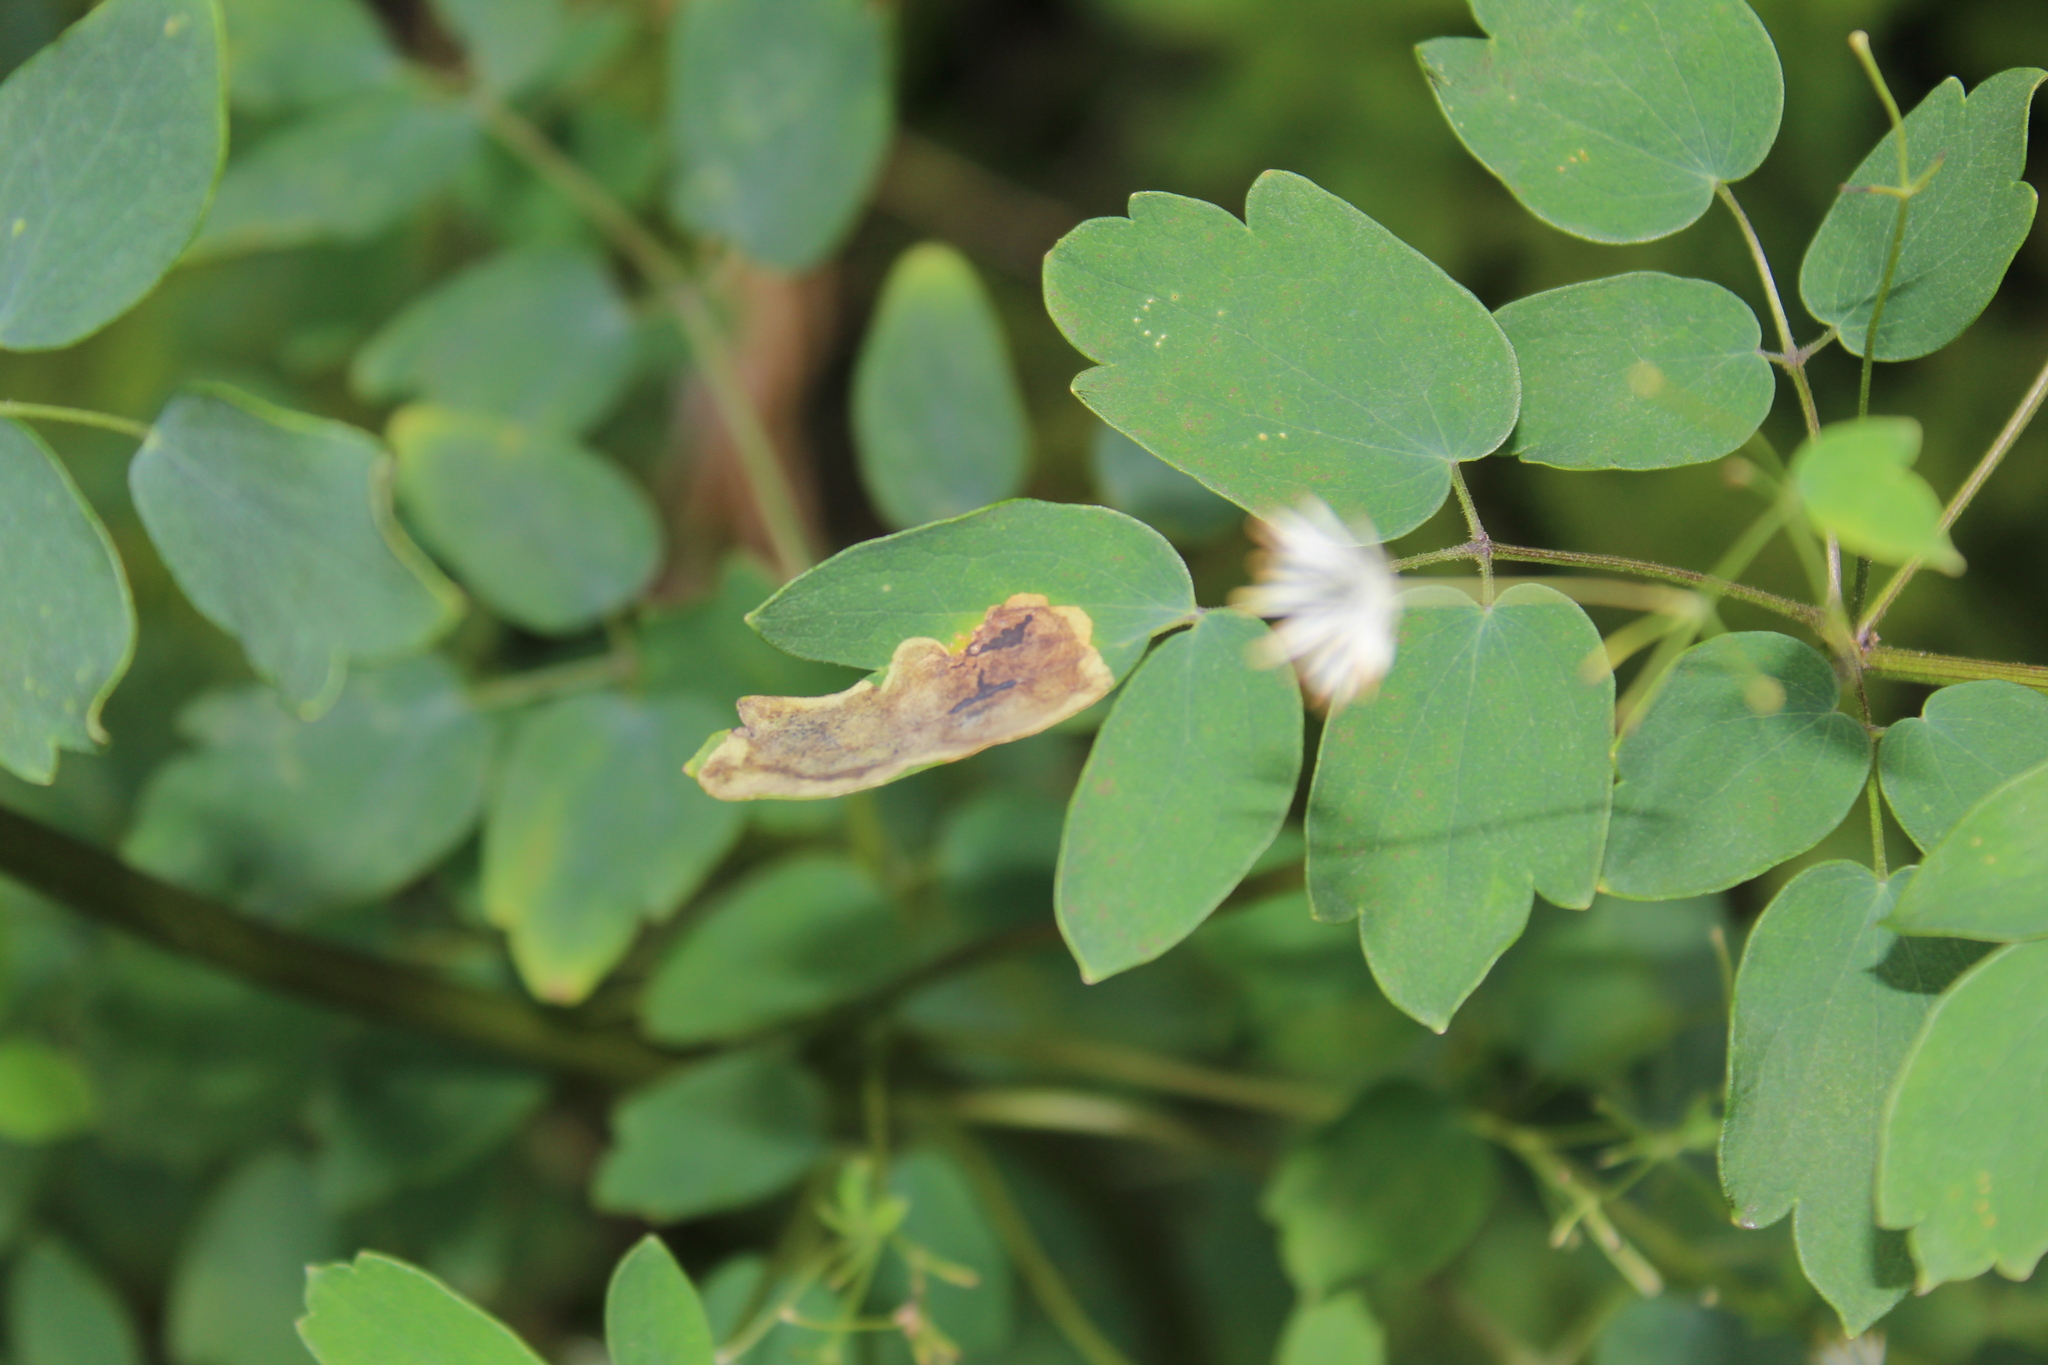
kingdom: Plantae
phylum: Tracheophyta
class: Magnoliopsida
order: Ranunculales
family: Ranunculaceae
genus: Thalictrum
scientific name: Thalictrum pubescens
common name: King-of-the-meadow
